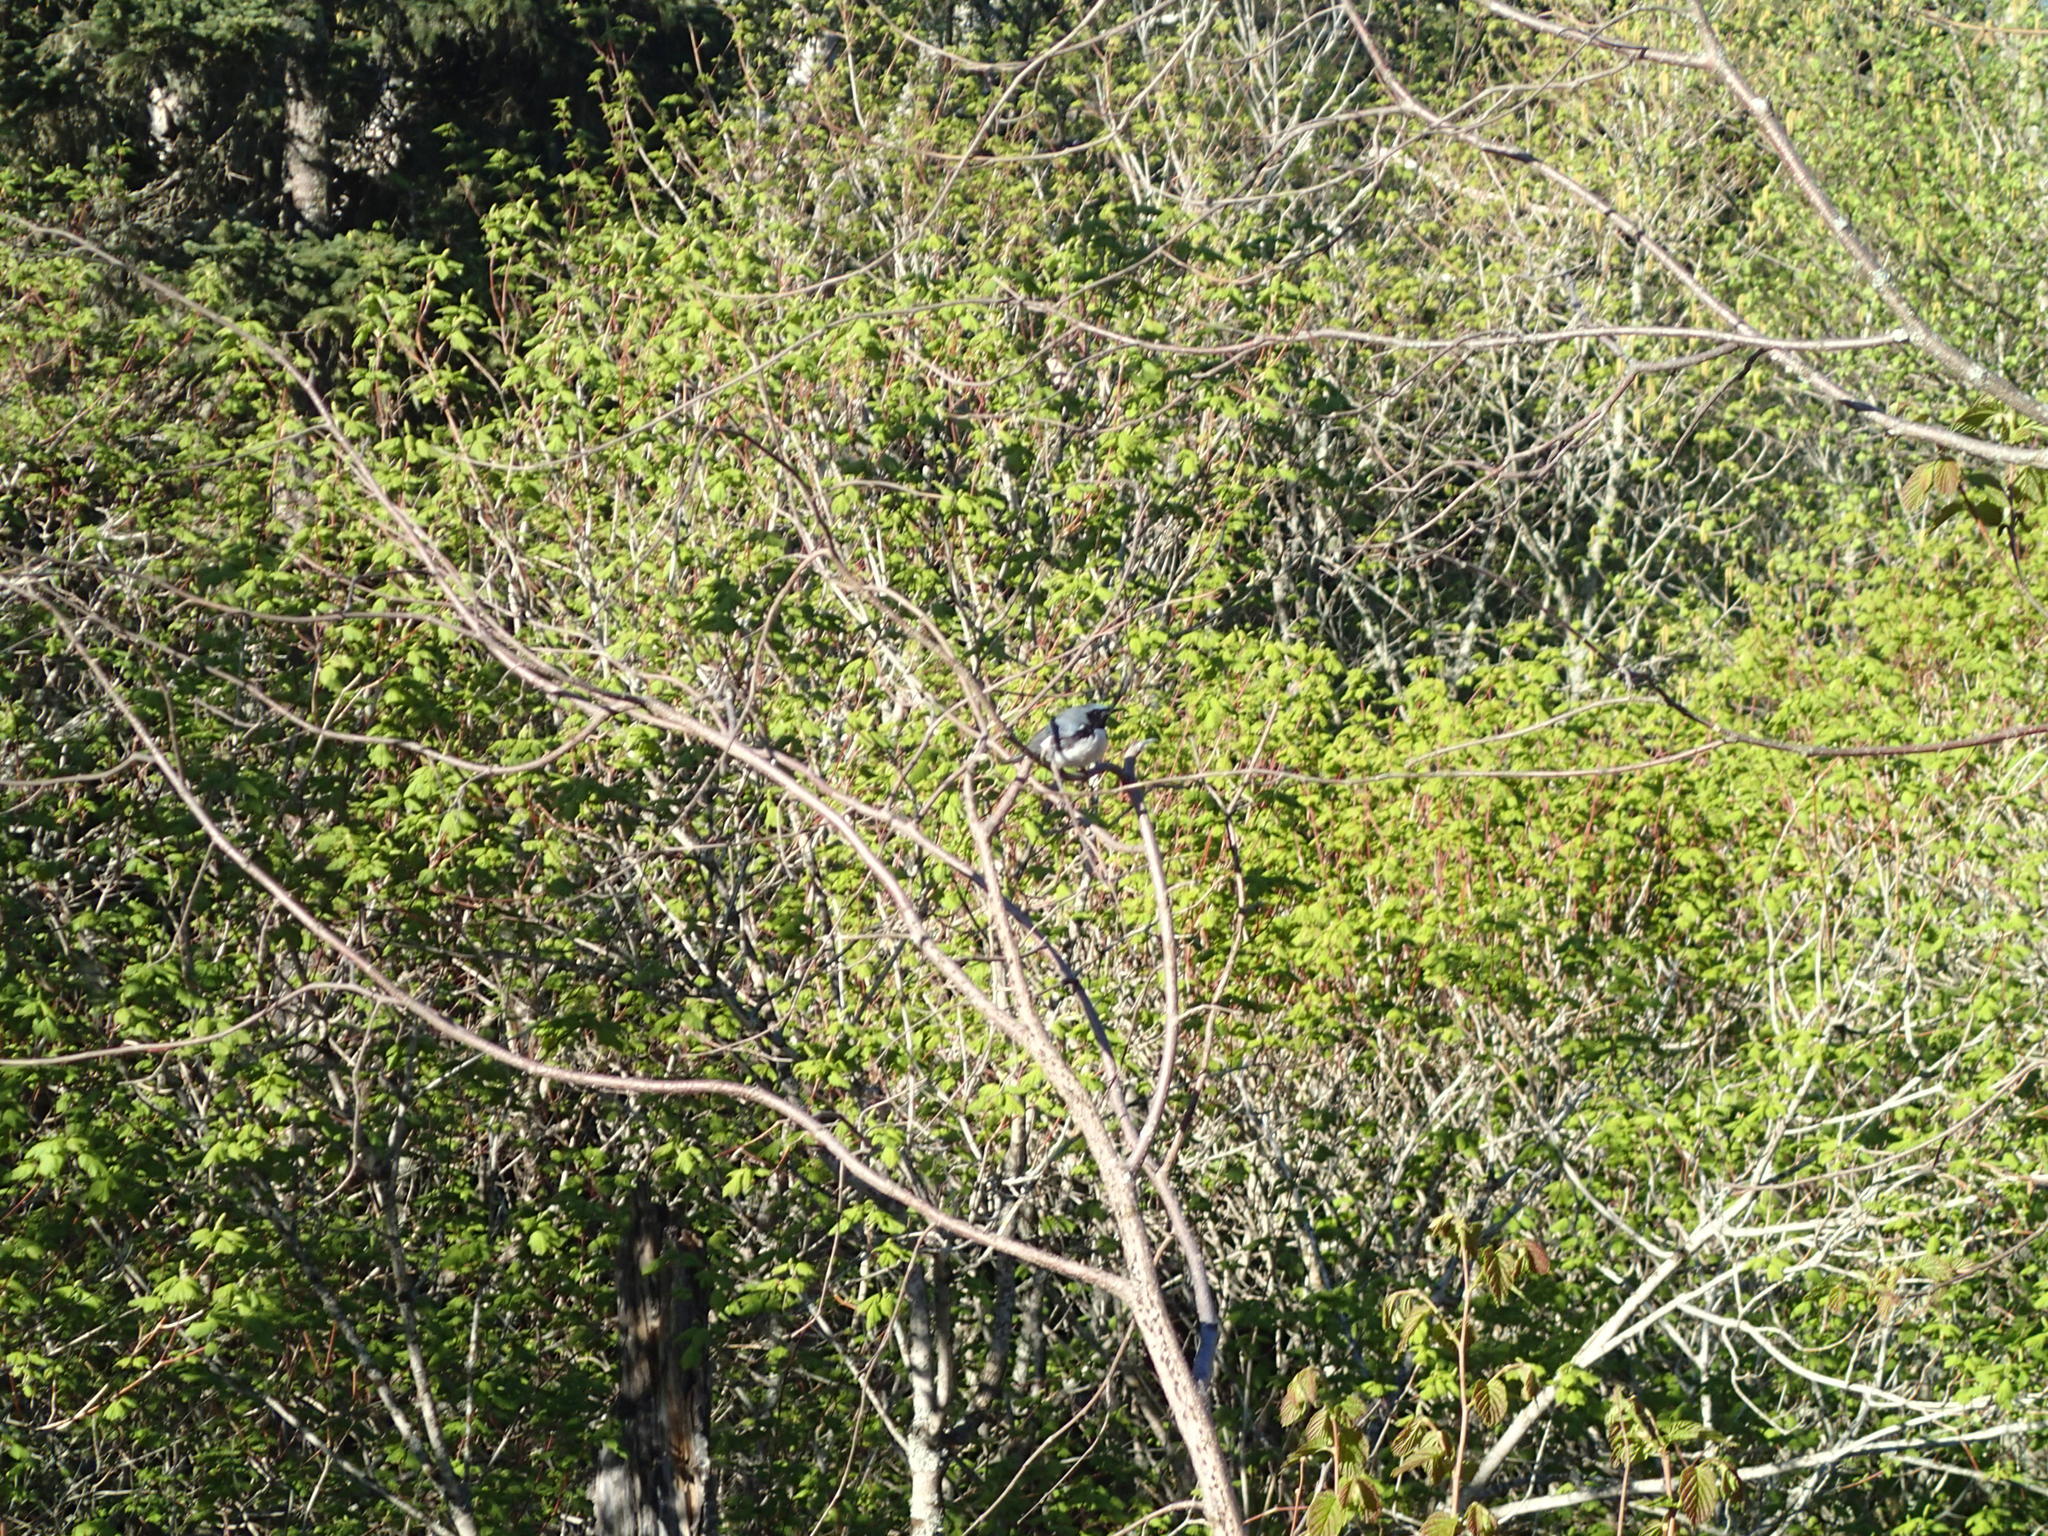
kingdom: Animalia
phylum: Chordata
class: Aves
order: Passeriformes
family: Parulidae
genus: Setophaga
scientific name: Setophaga caerulescens
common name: Black-throated blue warbler
